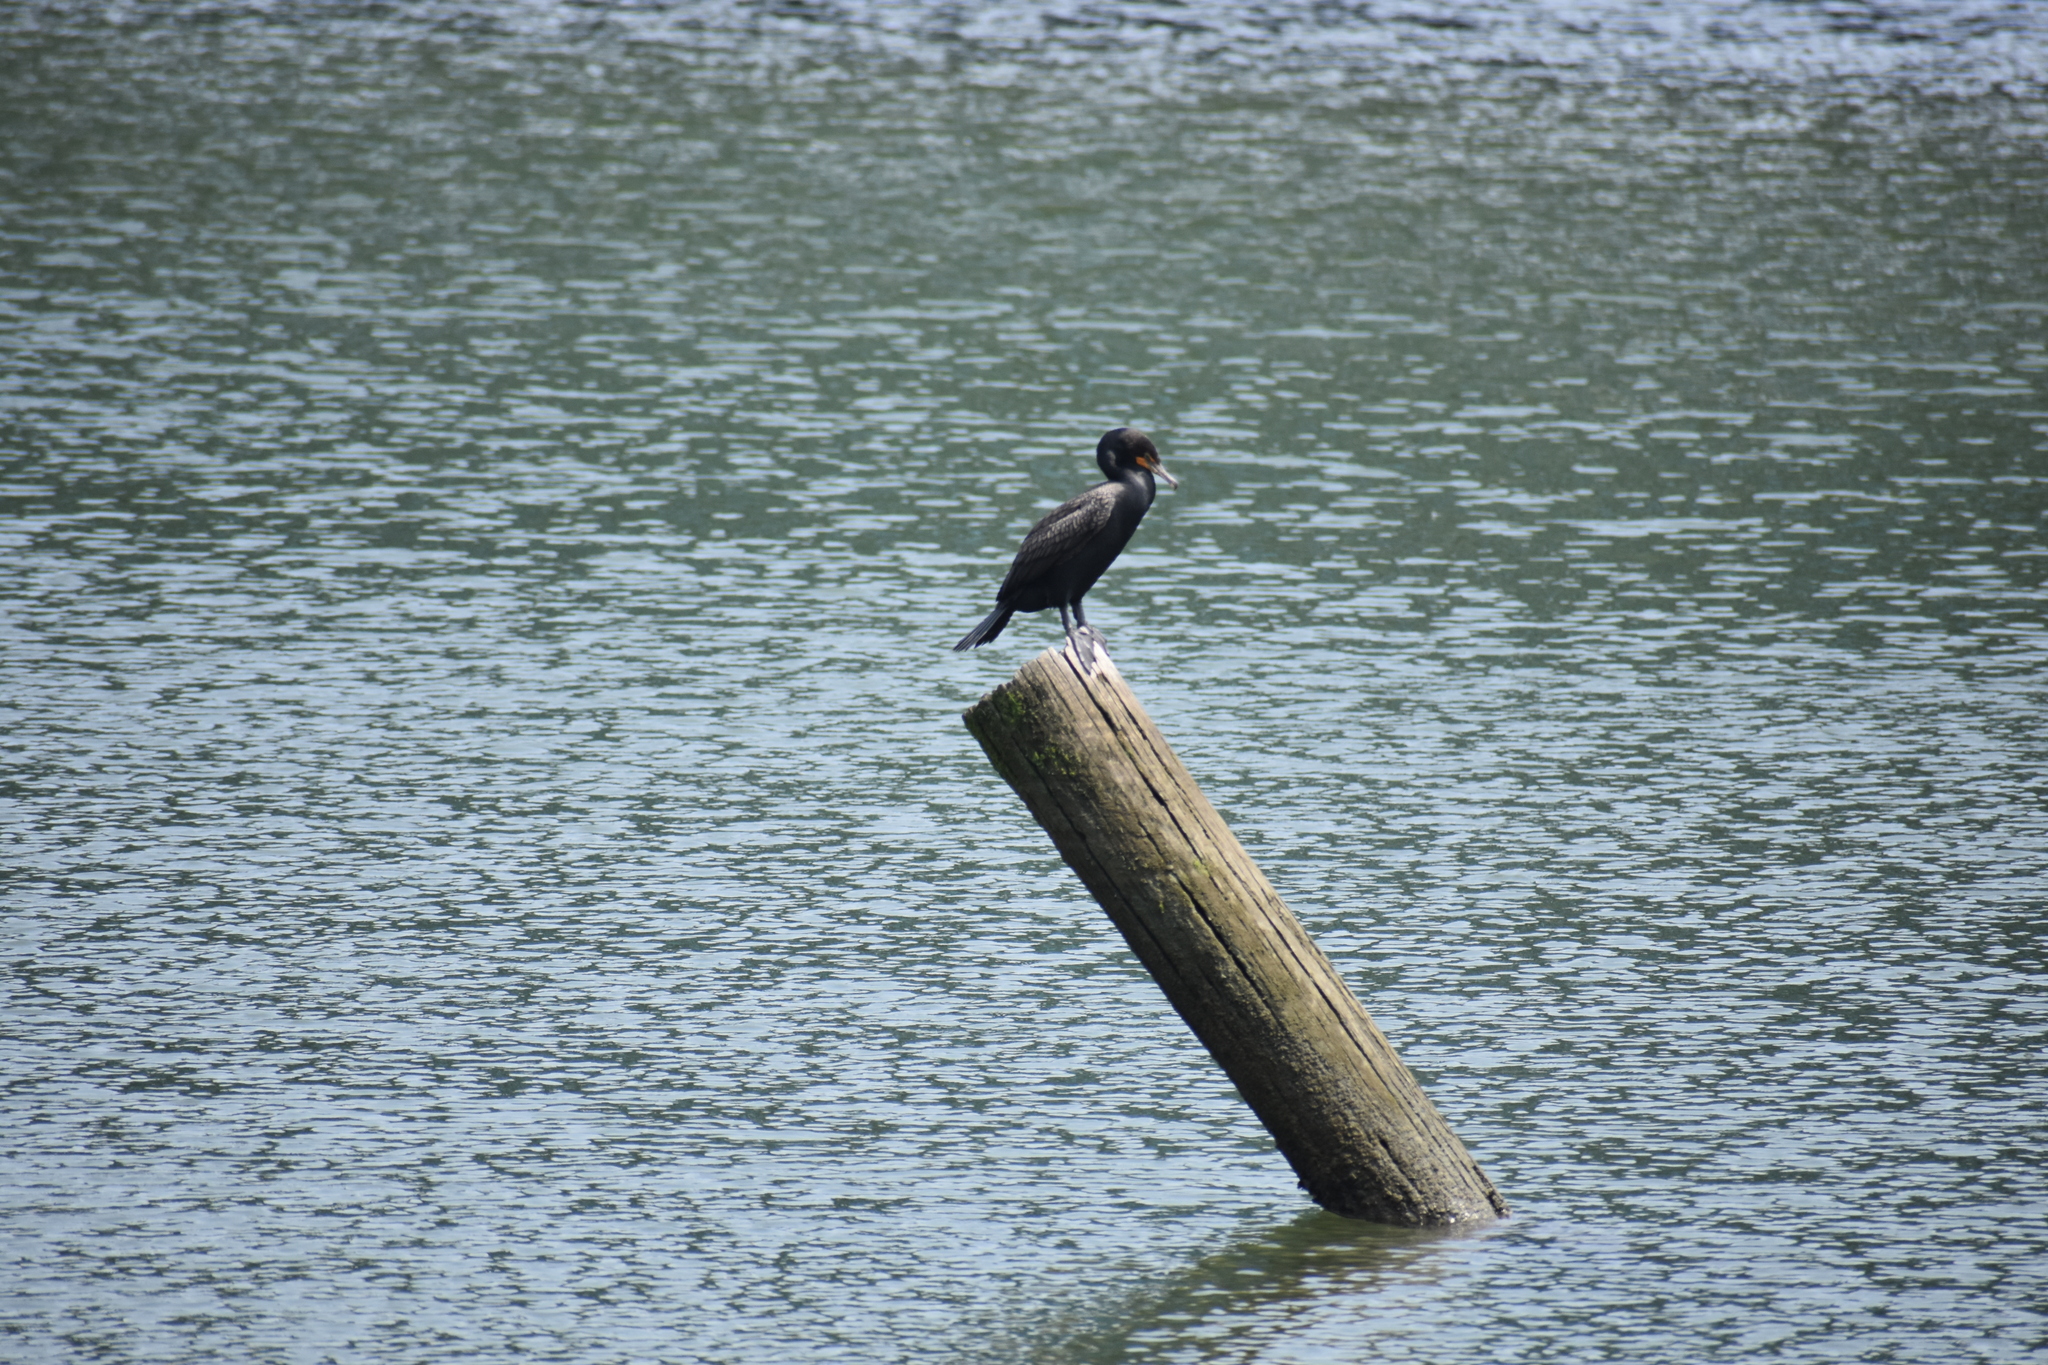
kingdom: Animalia
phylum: Chordata
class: Aves
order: Suliformes
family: Phalacrocoracidae
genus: Phalacrocorax
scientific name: Phalacrocorax auritus
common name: Double-crested cormorant
